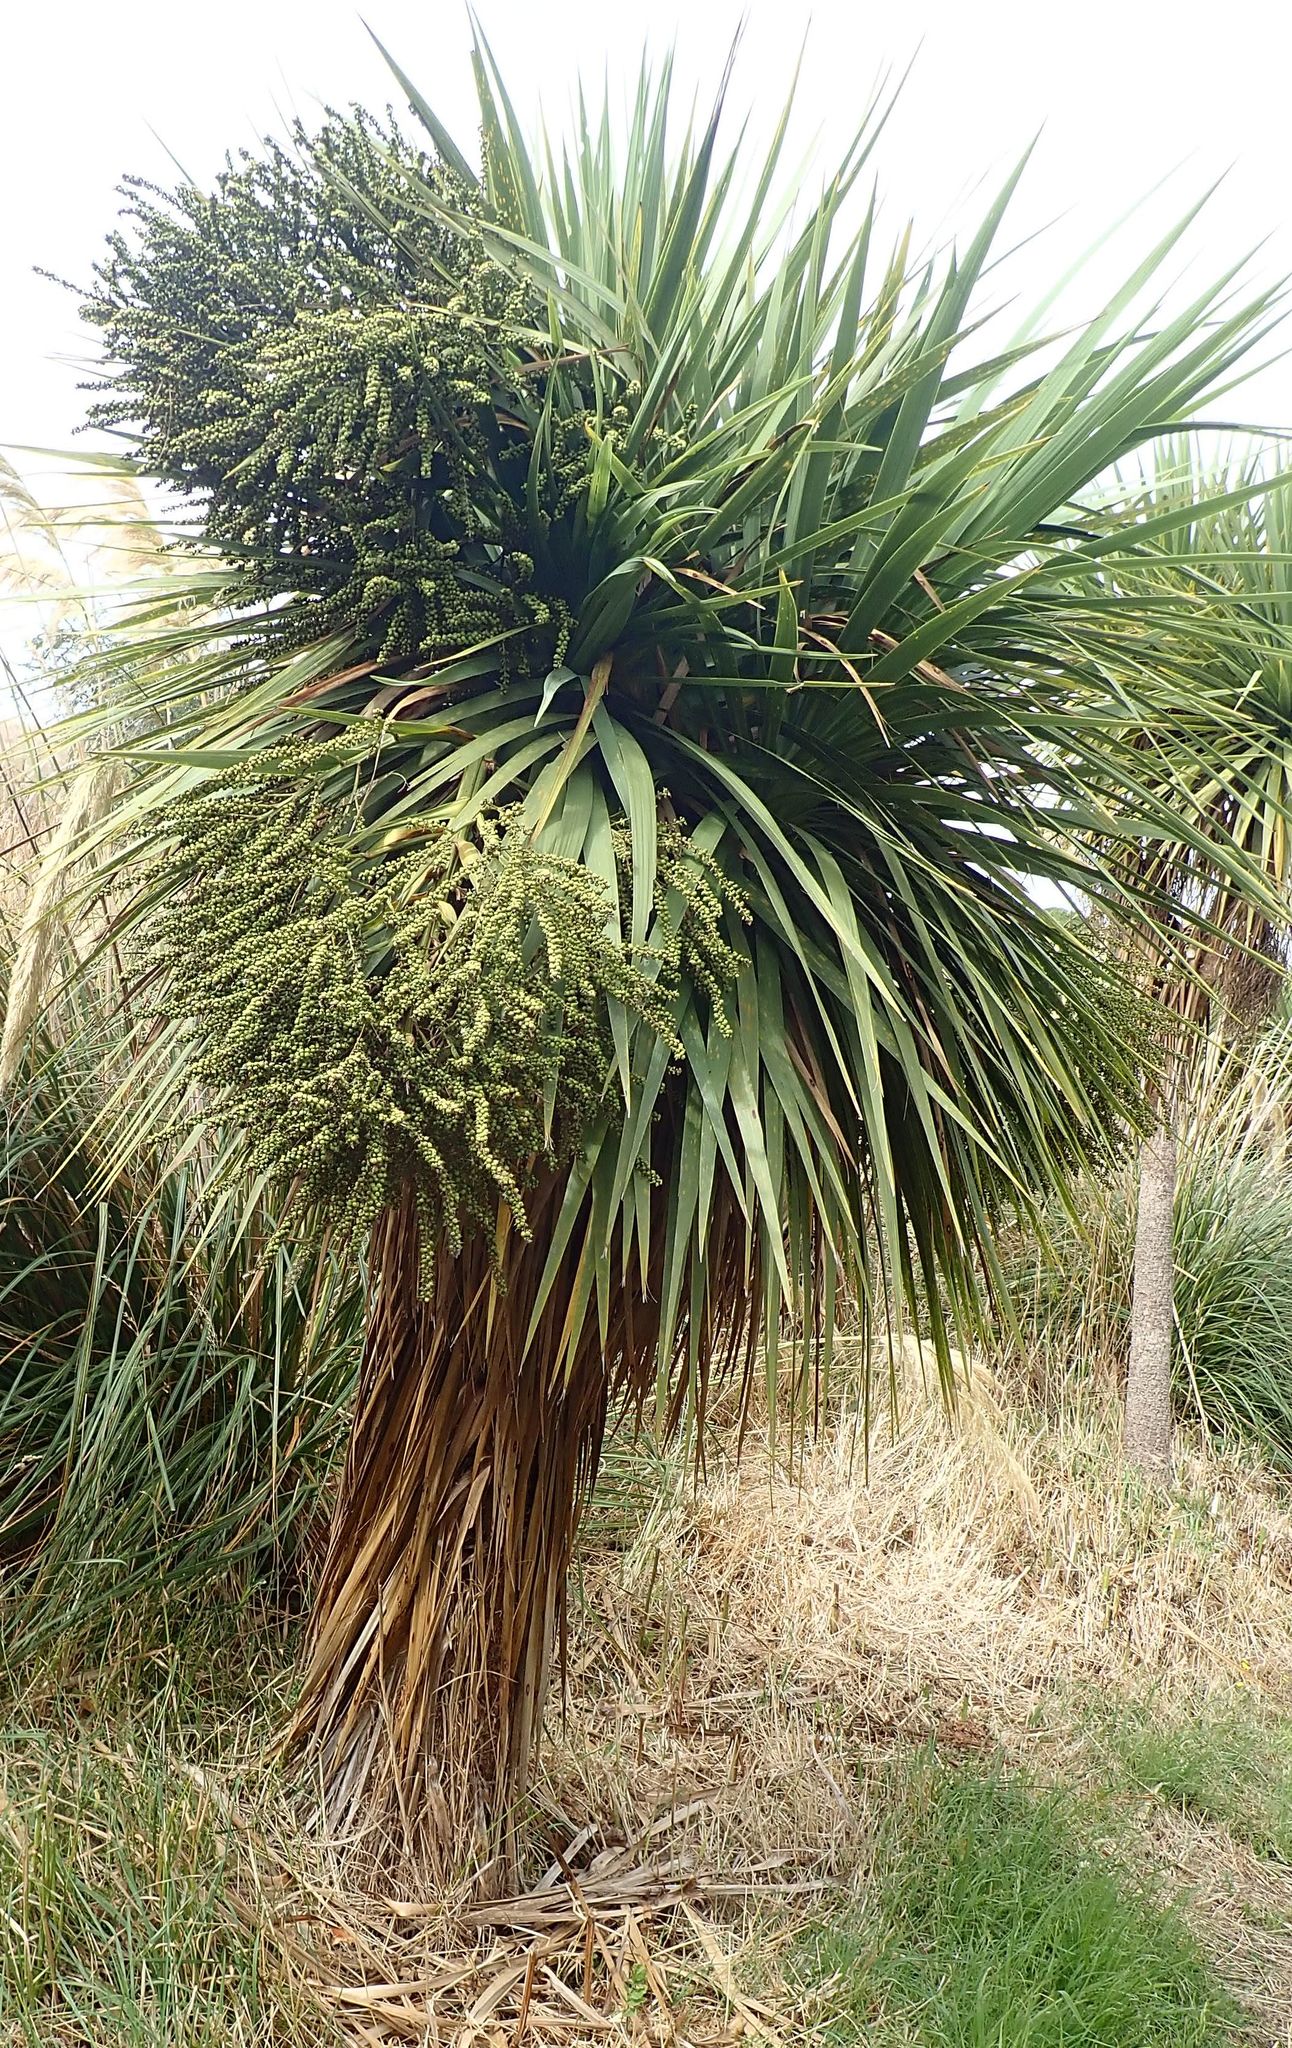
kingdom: Plantae
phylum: Tracheophyta
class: Liliopsida
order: Asparagales
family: Asparagaceae
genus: Cordyline
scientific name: Cordyline australis
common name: Cabbage-palm
